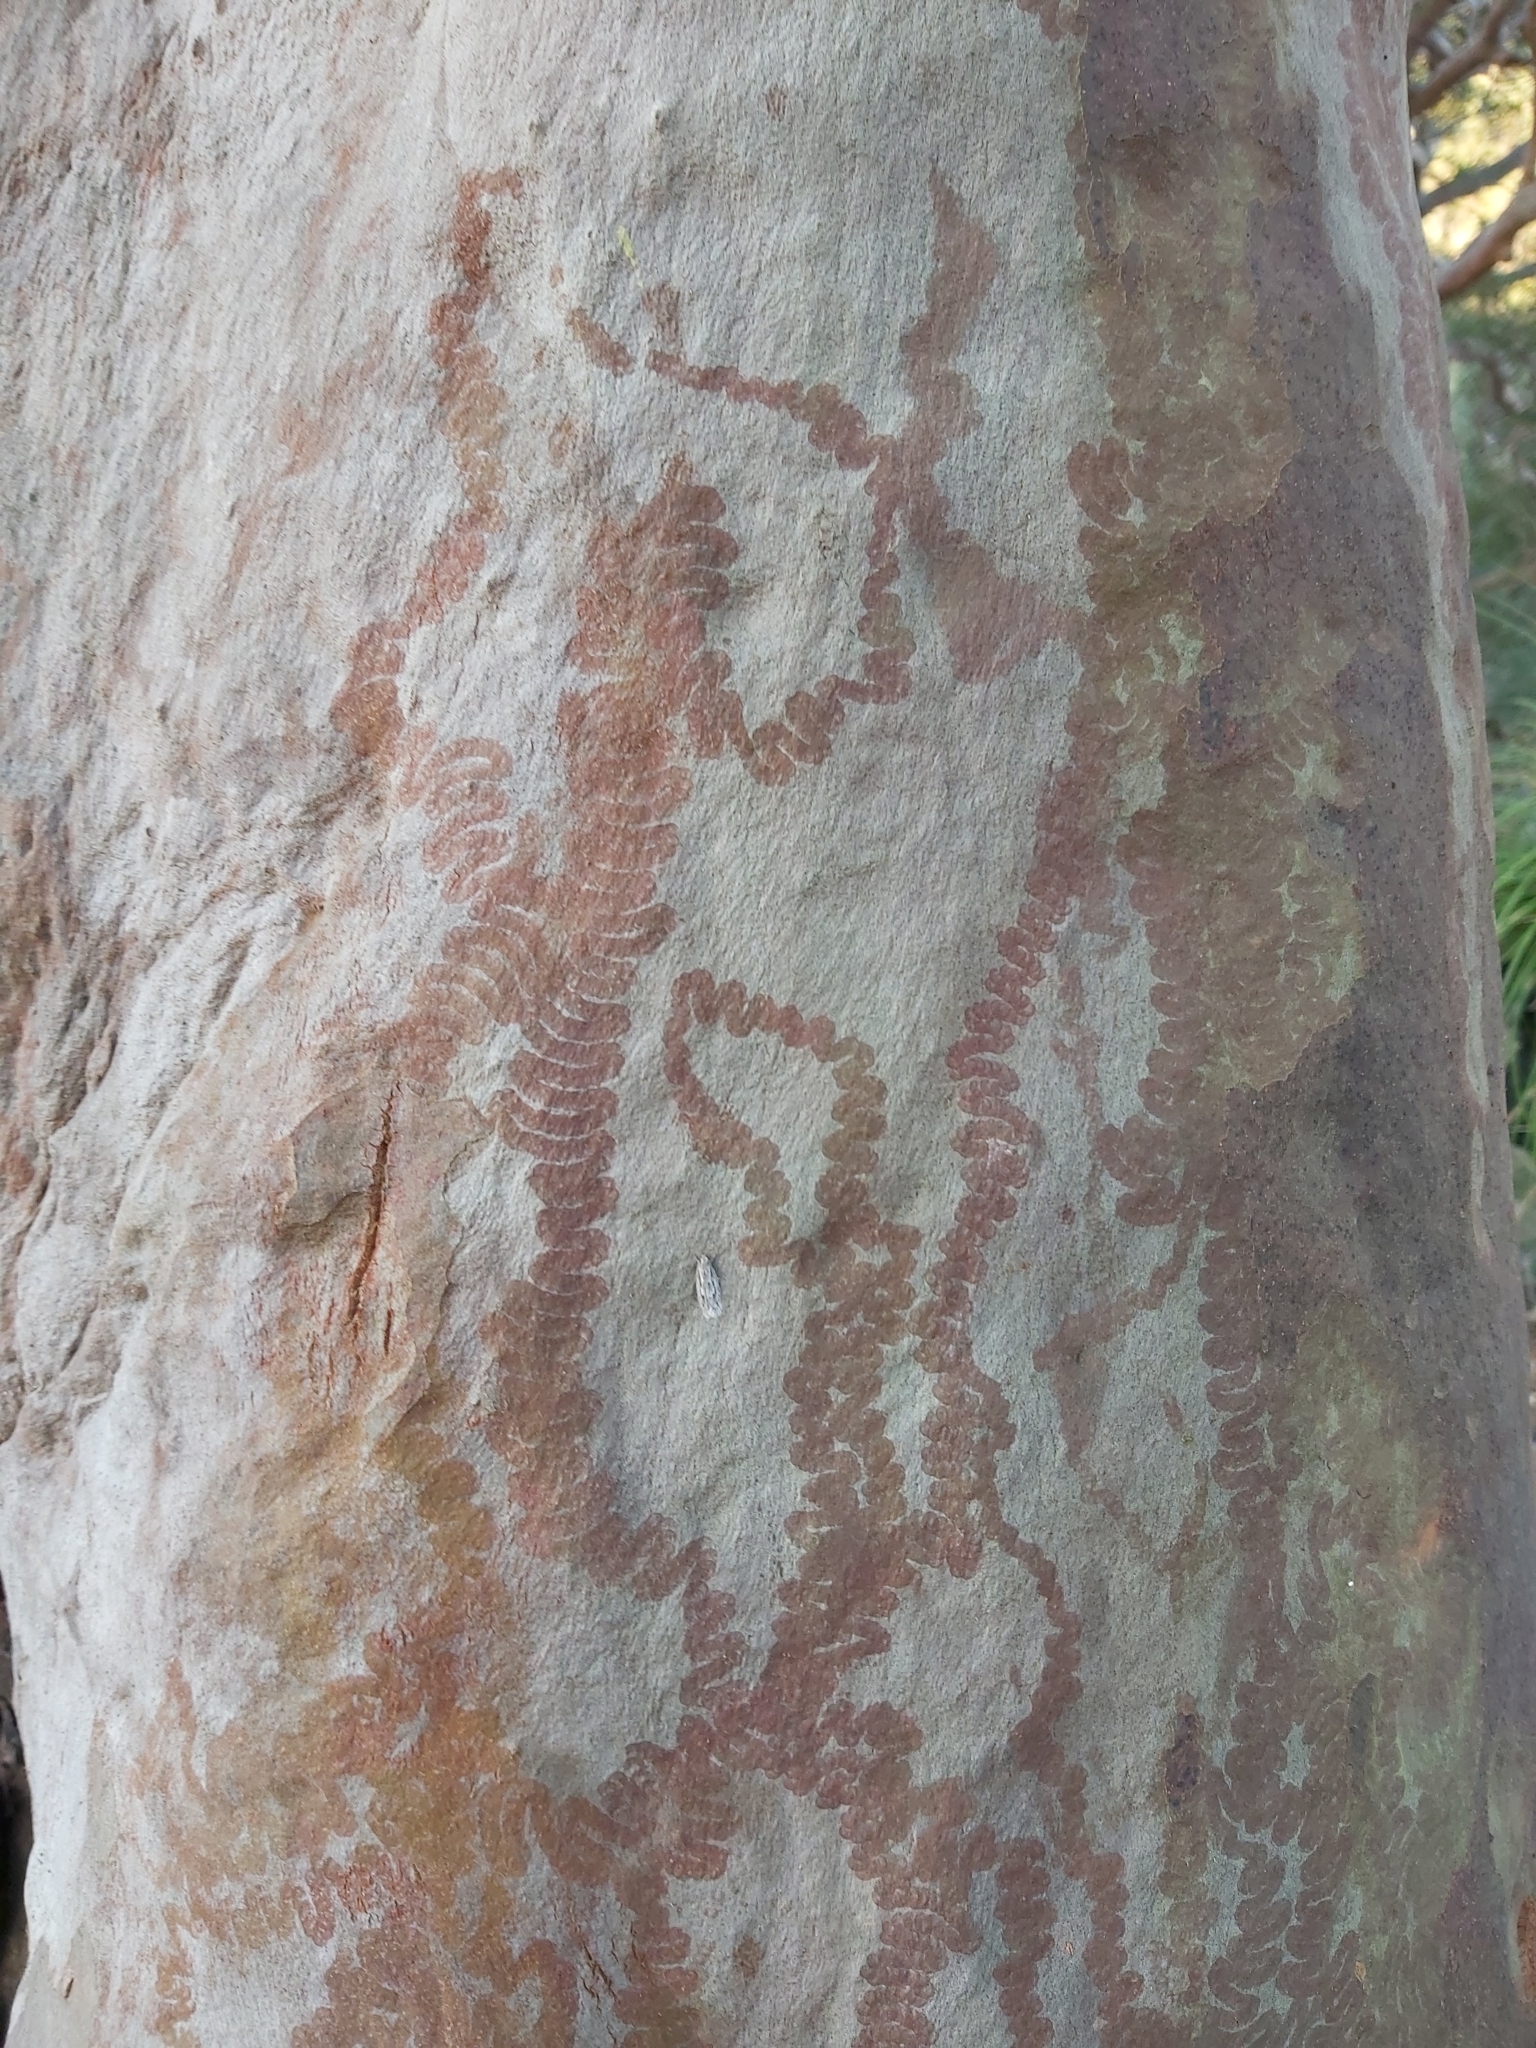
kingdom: Animalia
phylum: Mollusca
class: Gastropoda
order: Stylommatophora
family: Athoracophoridae
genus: Triboniophorus
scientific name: Triboniophorus graeffei
